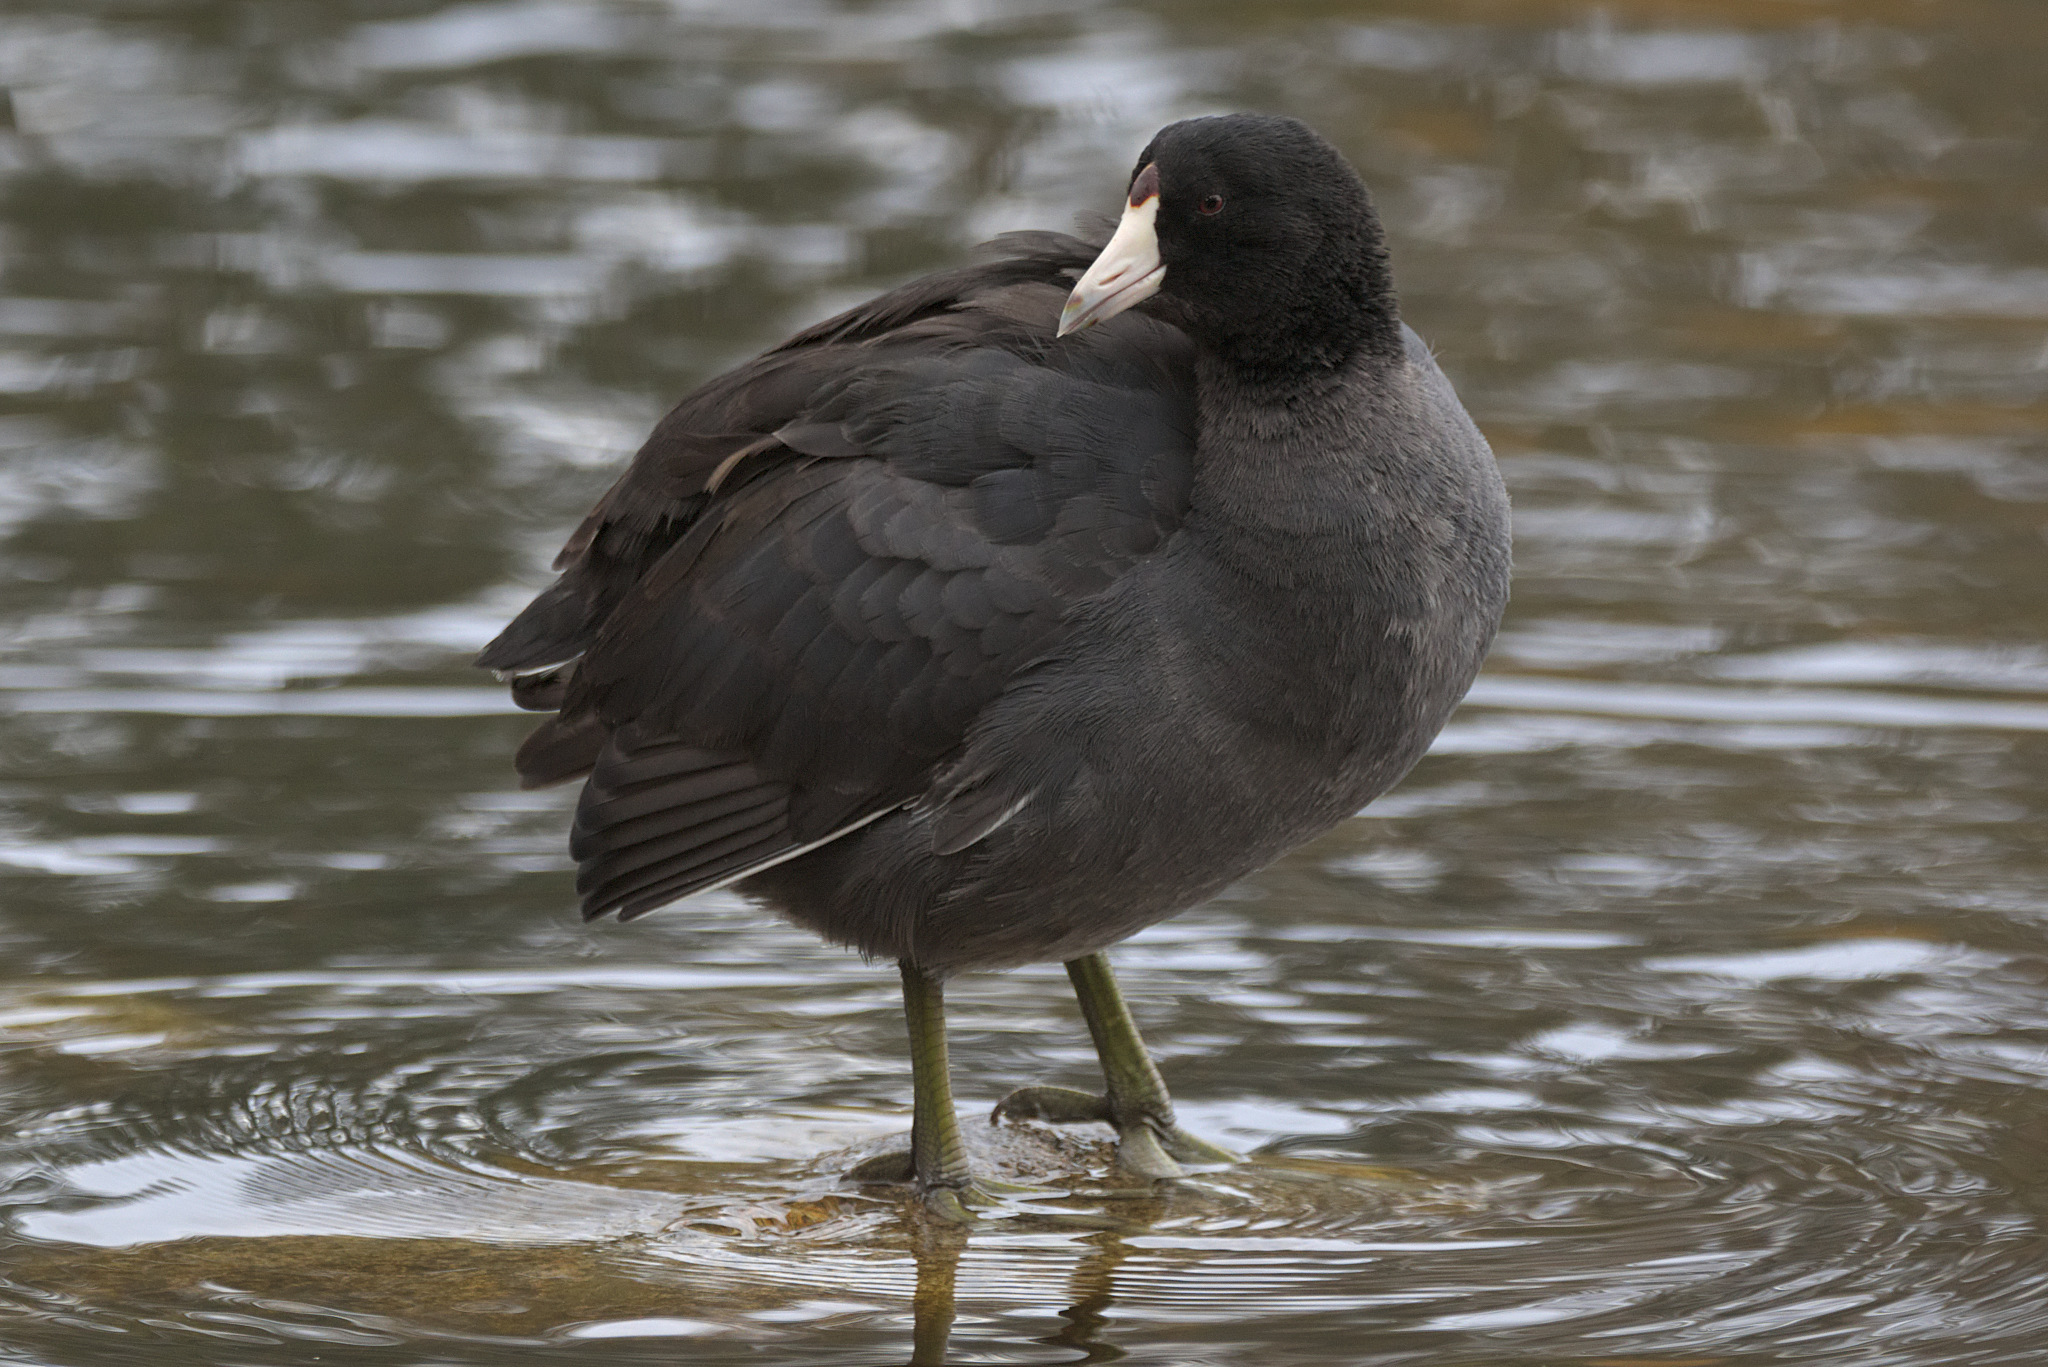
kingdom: Animalia
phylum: Chordata
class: Aves
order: Gruiformes
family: Rallidae
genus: Fulica
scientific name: Fulica americana
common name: American coot
